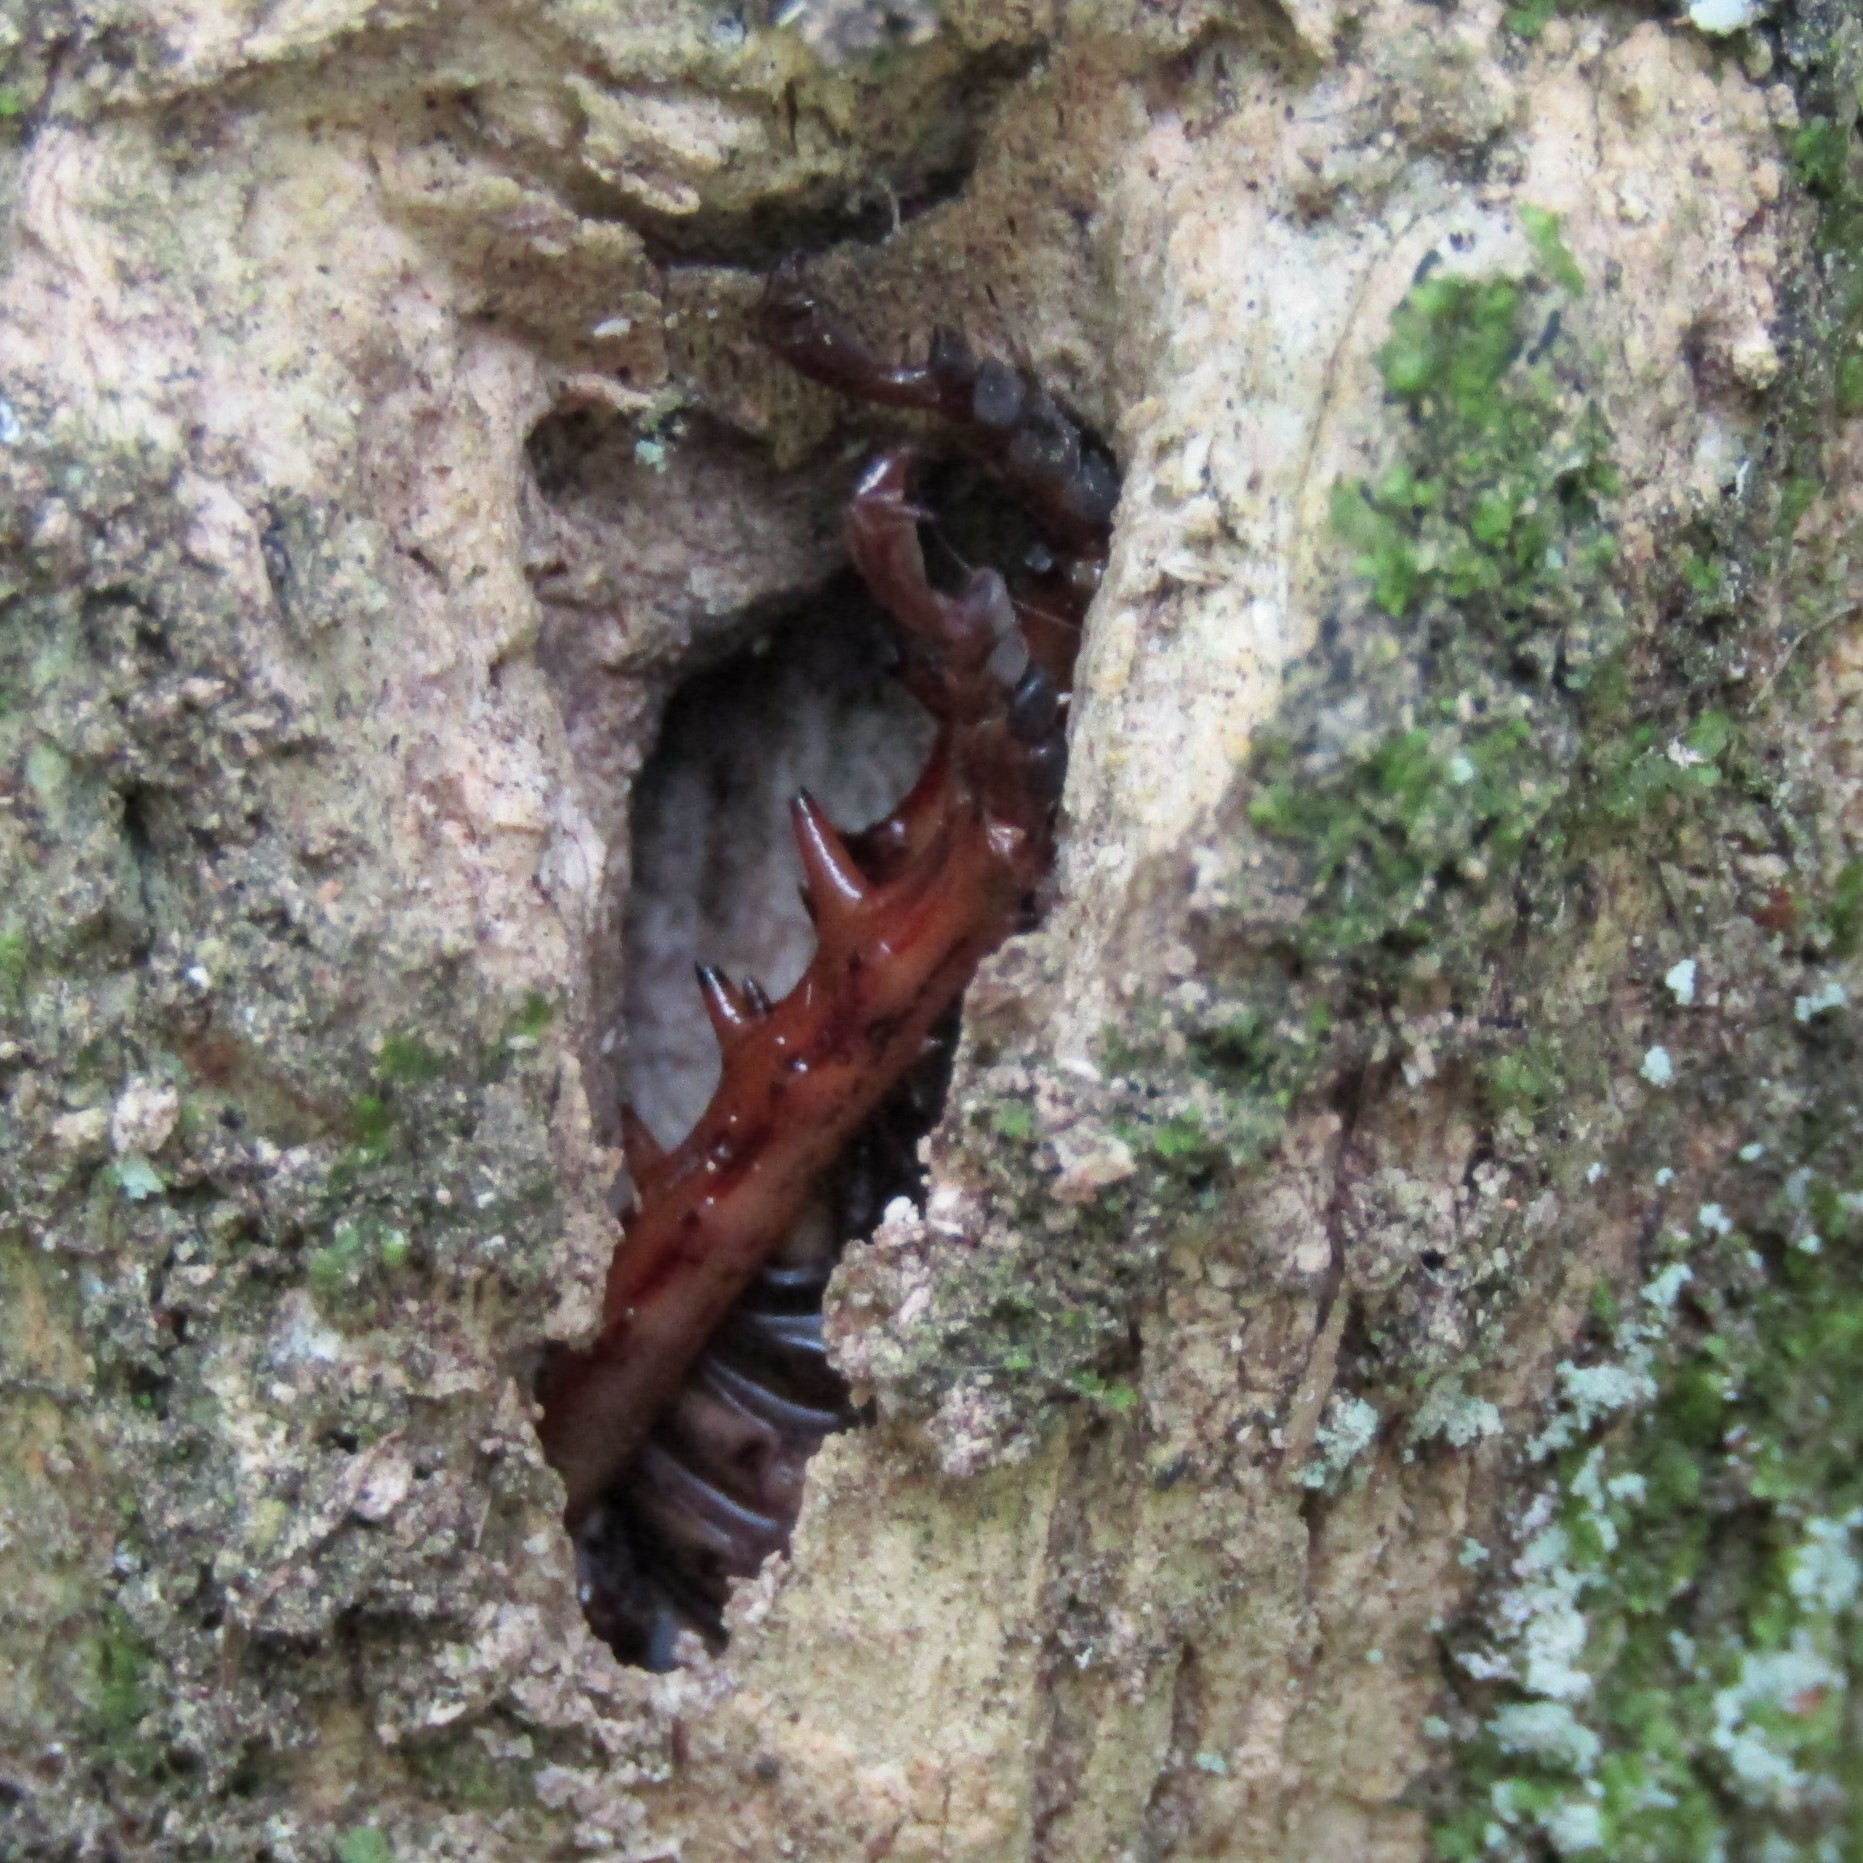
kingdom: Animalia
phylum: Arthropoda
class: Insecta
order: Orthoptera
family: Anostostomatidae
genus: Hemideina
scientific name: Hemideina crassidens
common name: Wellington tree weta
